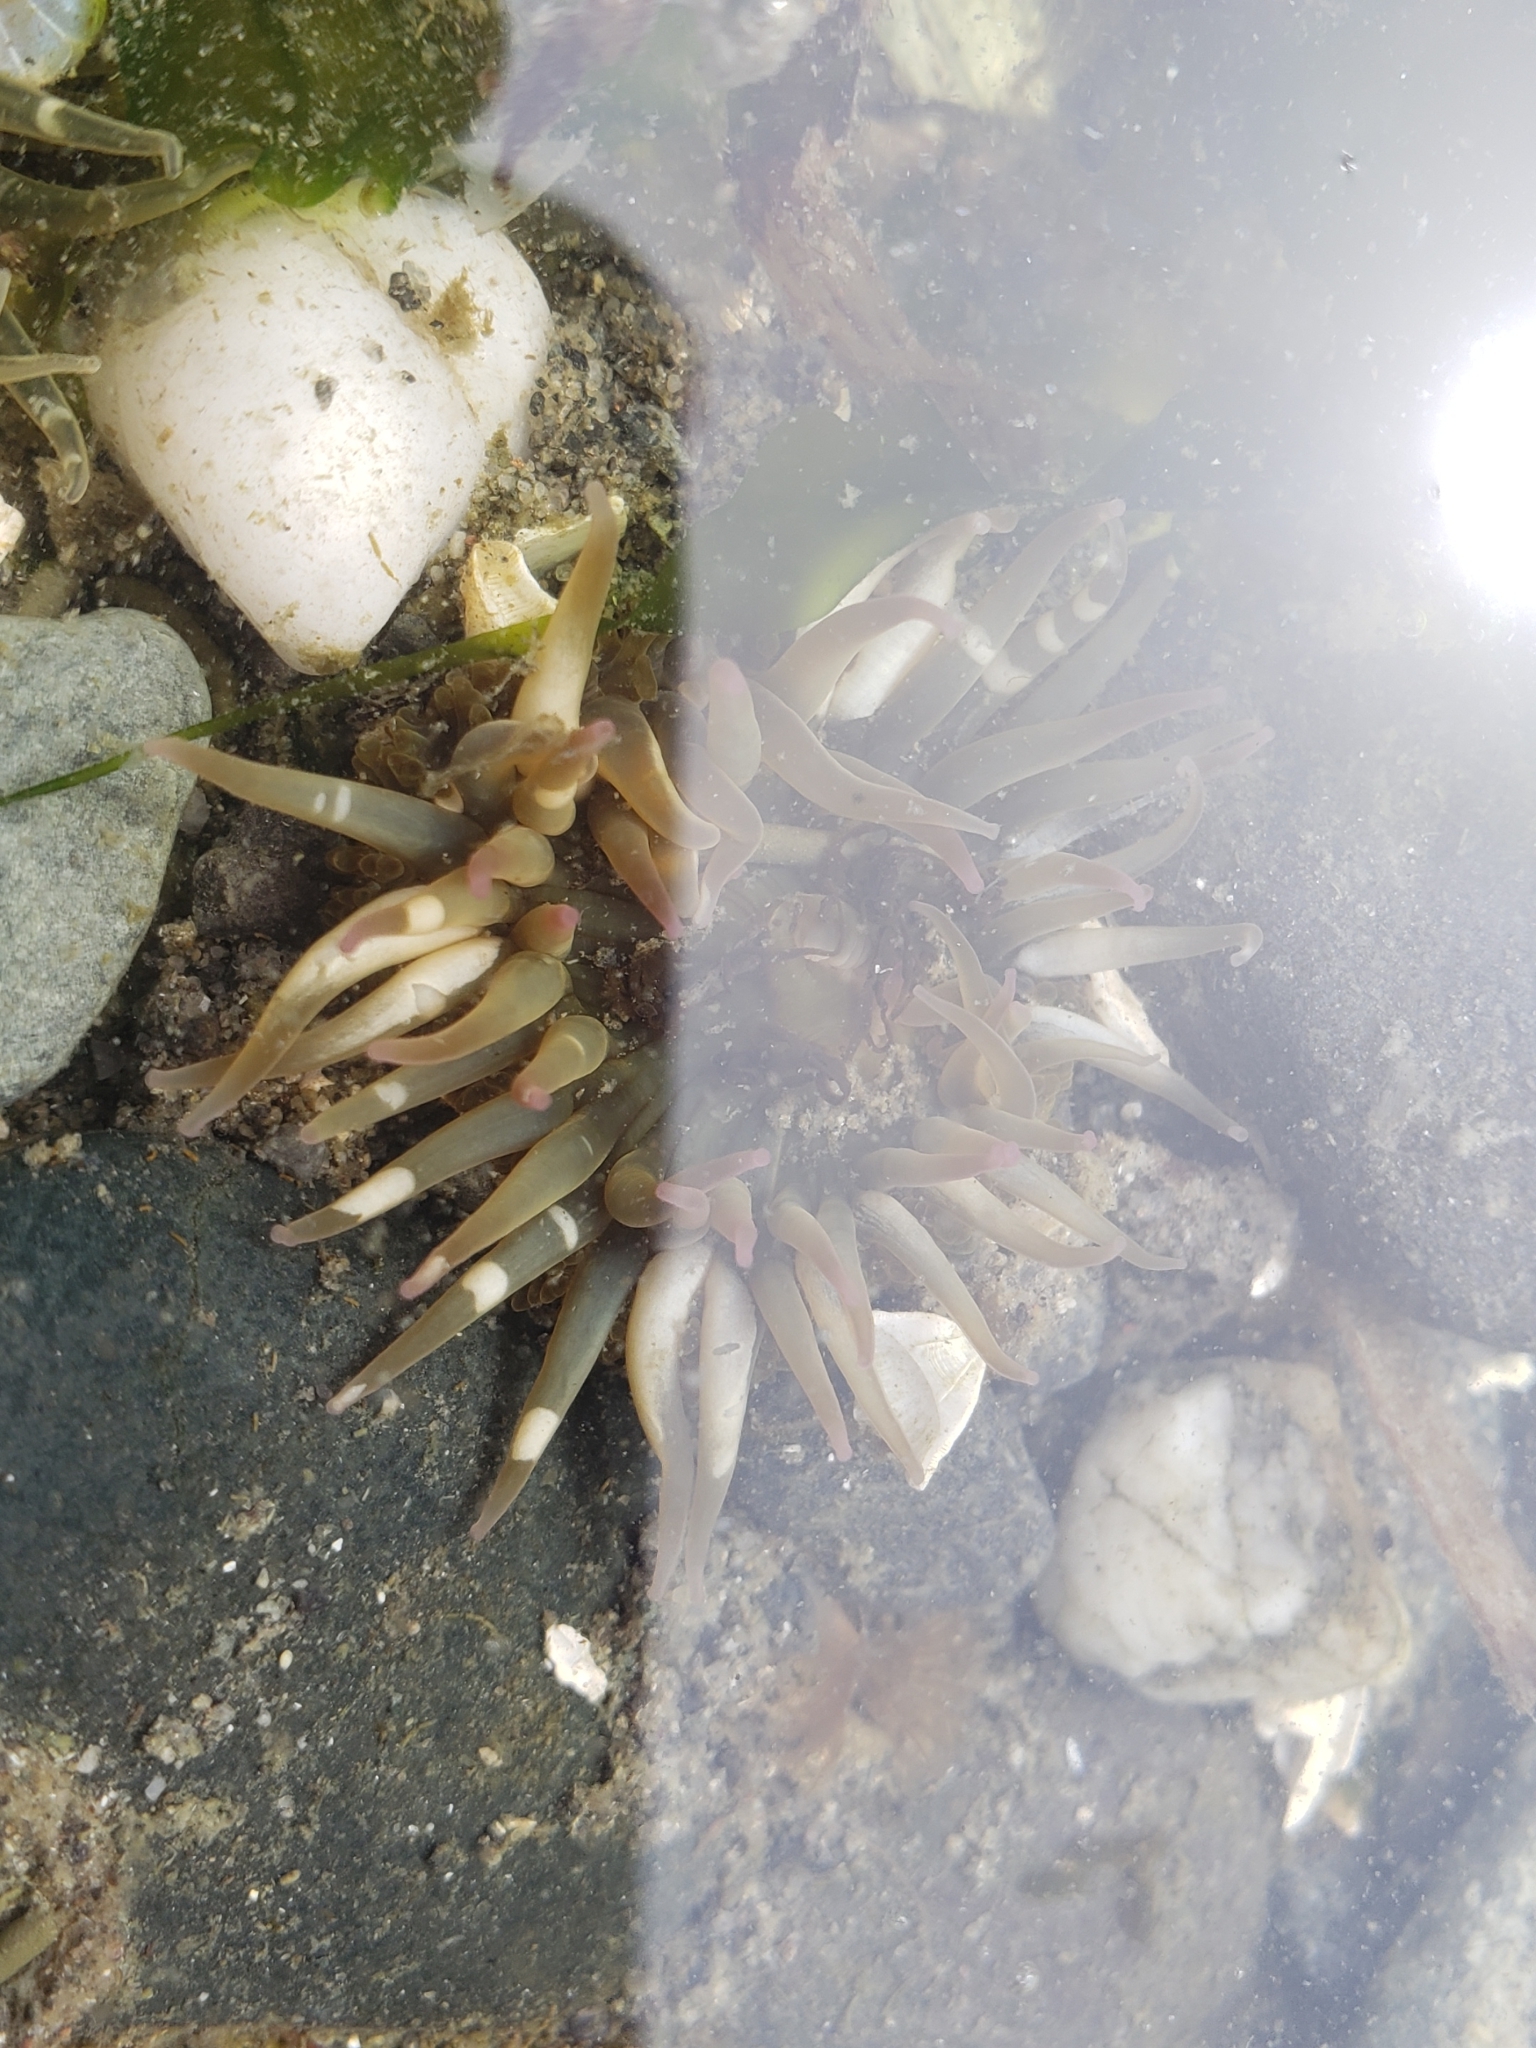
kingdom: Animalia
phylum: Cnidaria
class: Anthozoa
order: Actiniaria
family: Actiniidae
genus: Anthopleura
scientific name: Anthopleura elegantissima
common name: Clonal anemone
